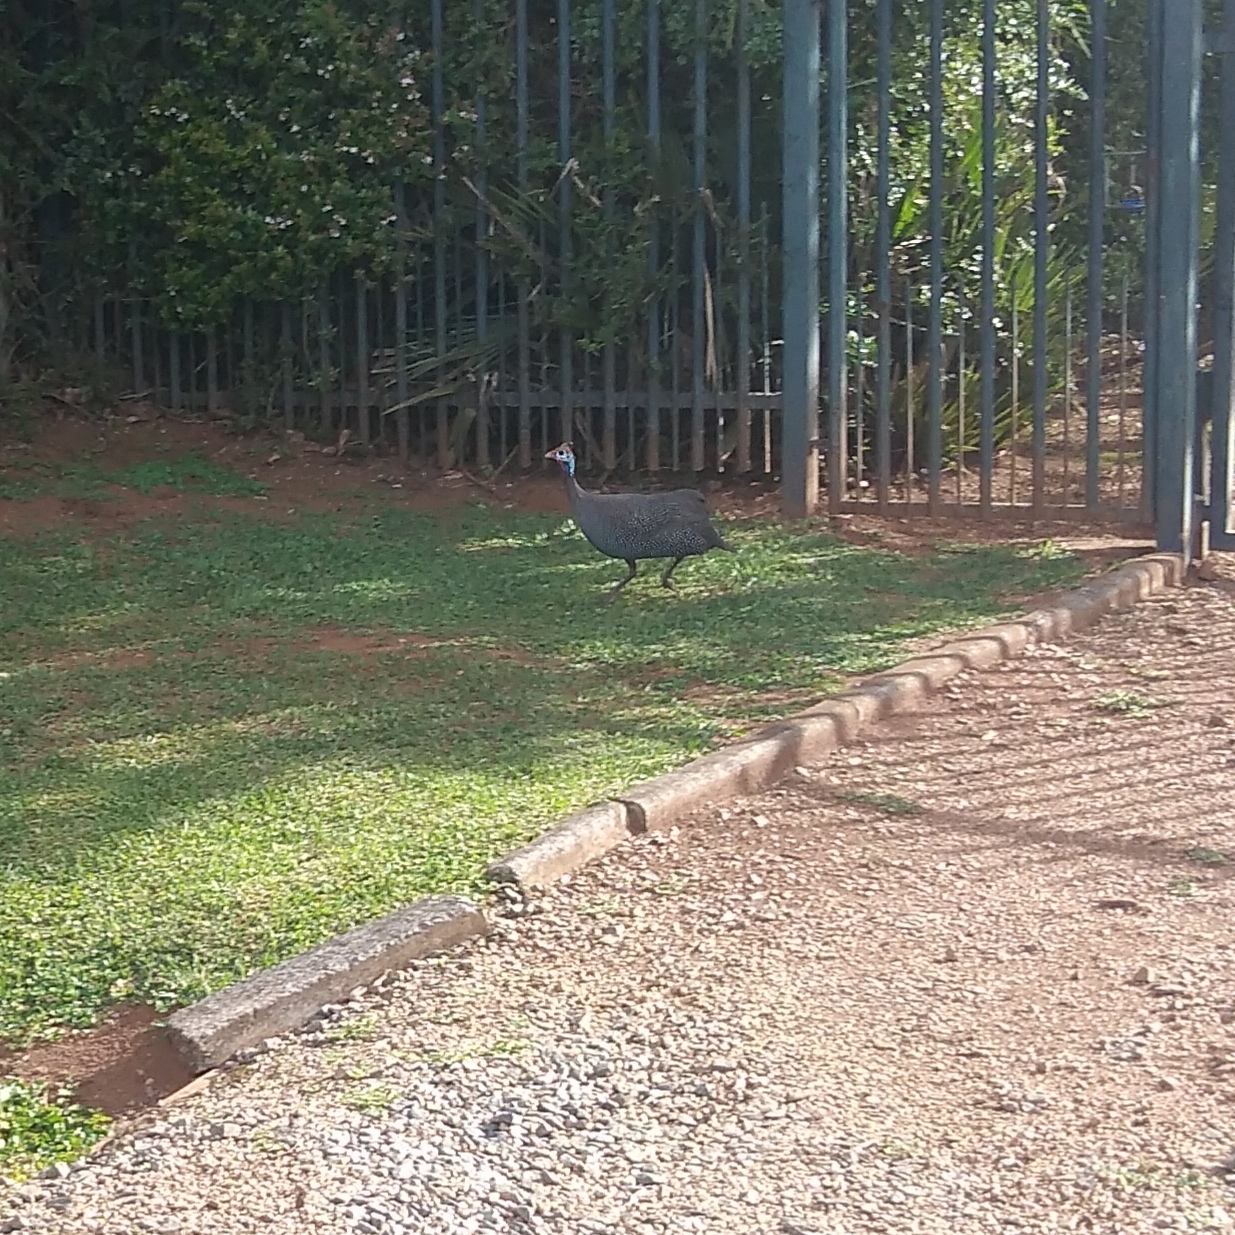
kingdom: Animalia
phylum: Chordata
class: Aves
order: Galliformes
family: Numididae
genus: Numida
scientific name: Numida meleagris
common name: Helmeted guineafowl
